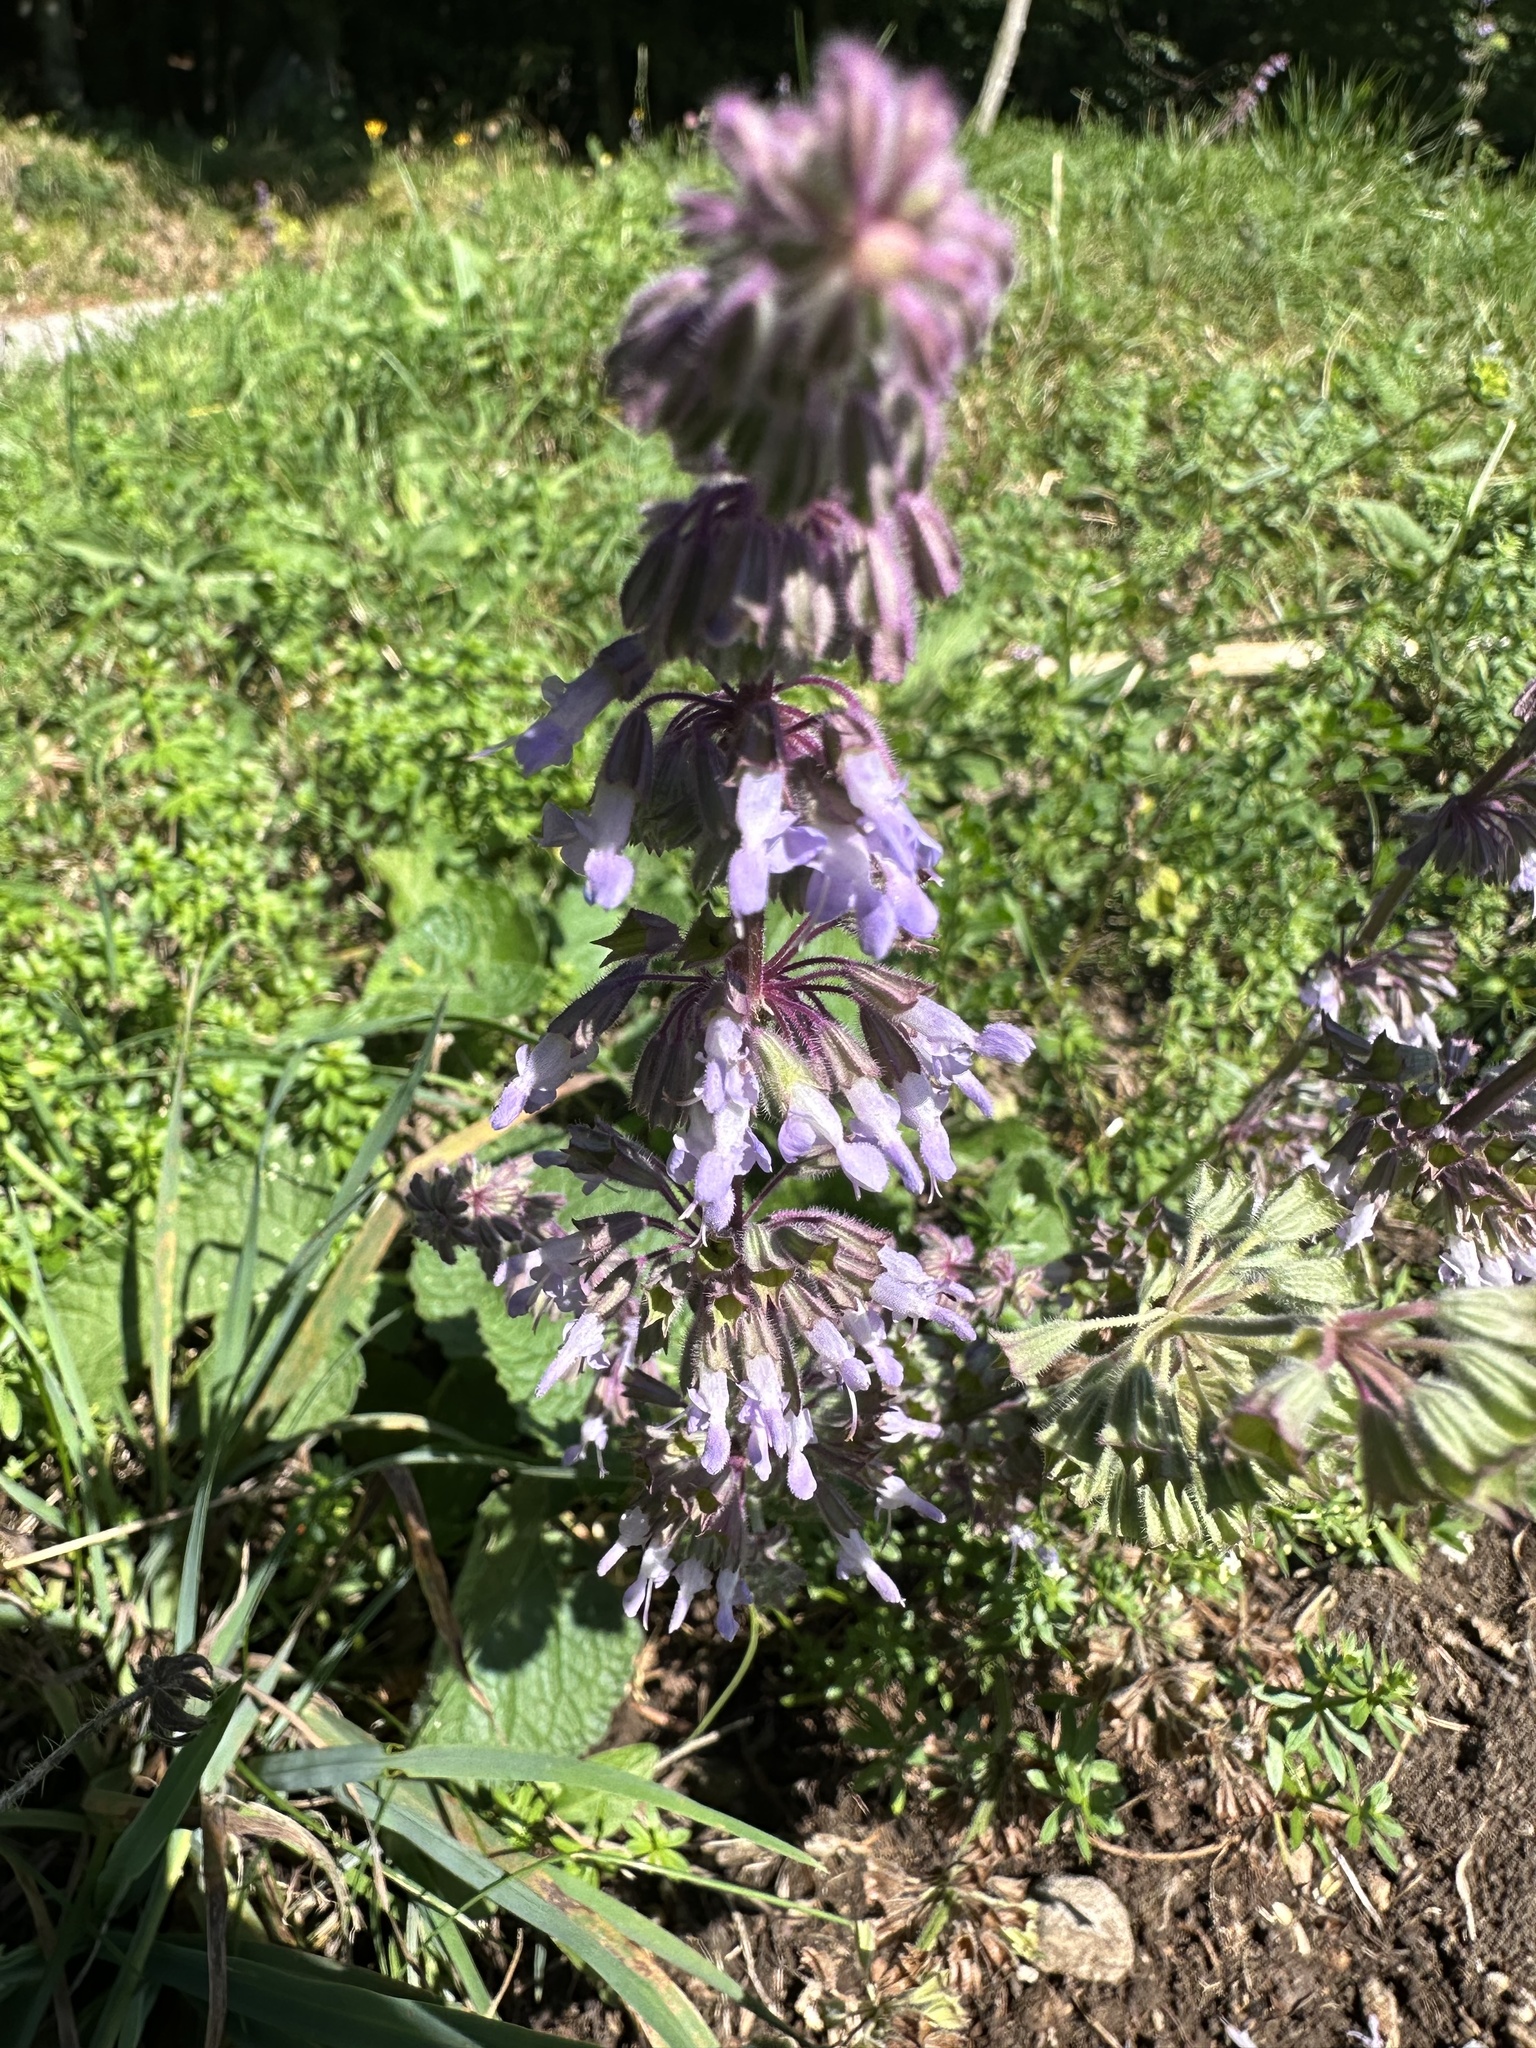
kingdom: Plantae
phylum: Tracheophyta
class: Magnoliopsida
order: Lamiales
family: Lamiaceae
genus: Salvia
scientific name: Salvia verticillata
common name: Whorled clary
